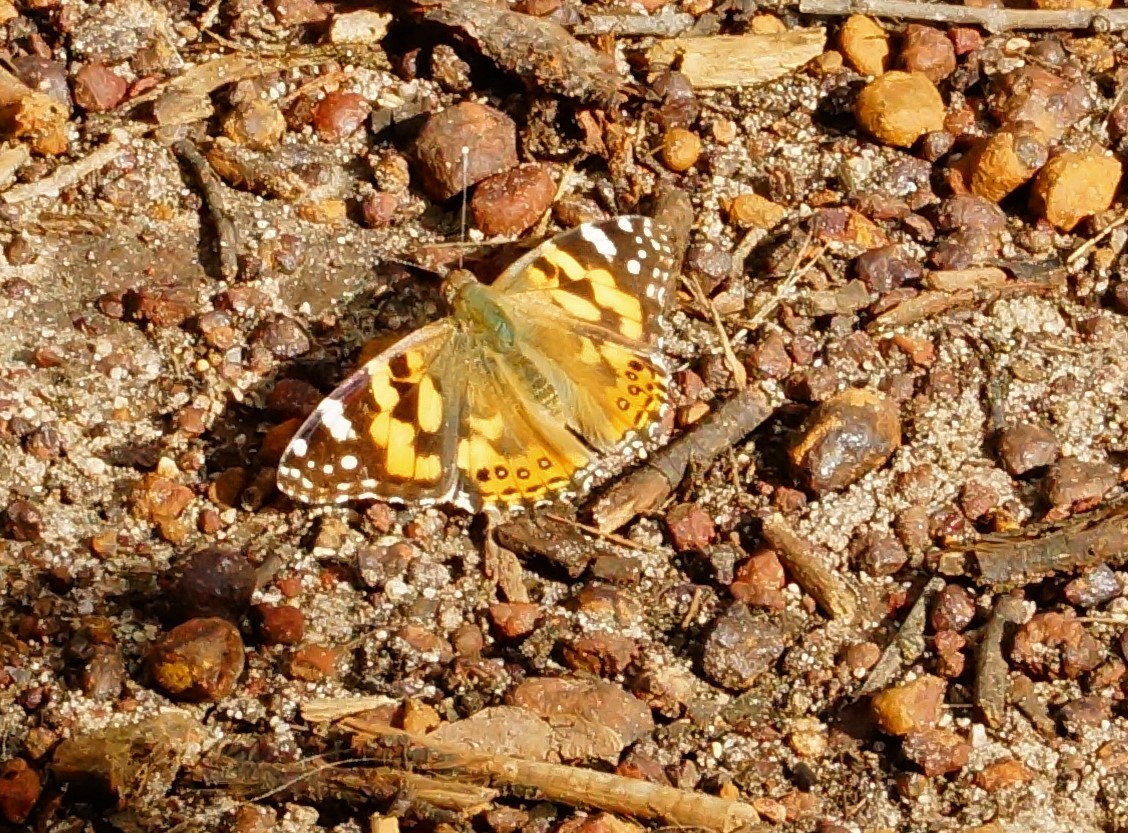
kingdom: Animalia
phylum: Arthropoda
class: Insecta
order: Lepidoptera
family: Nymphalidae
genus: Vanessa
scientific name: Vanessa kershawi
